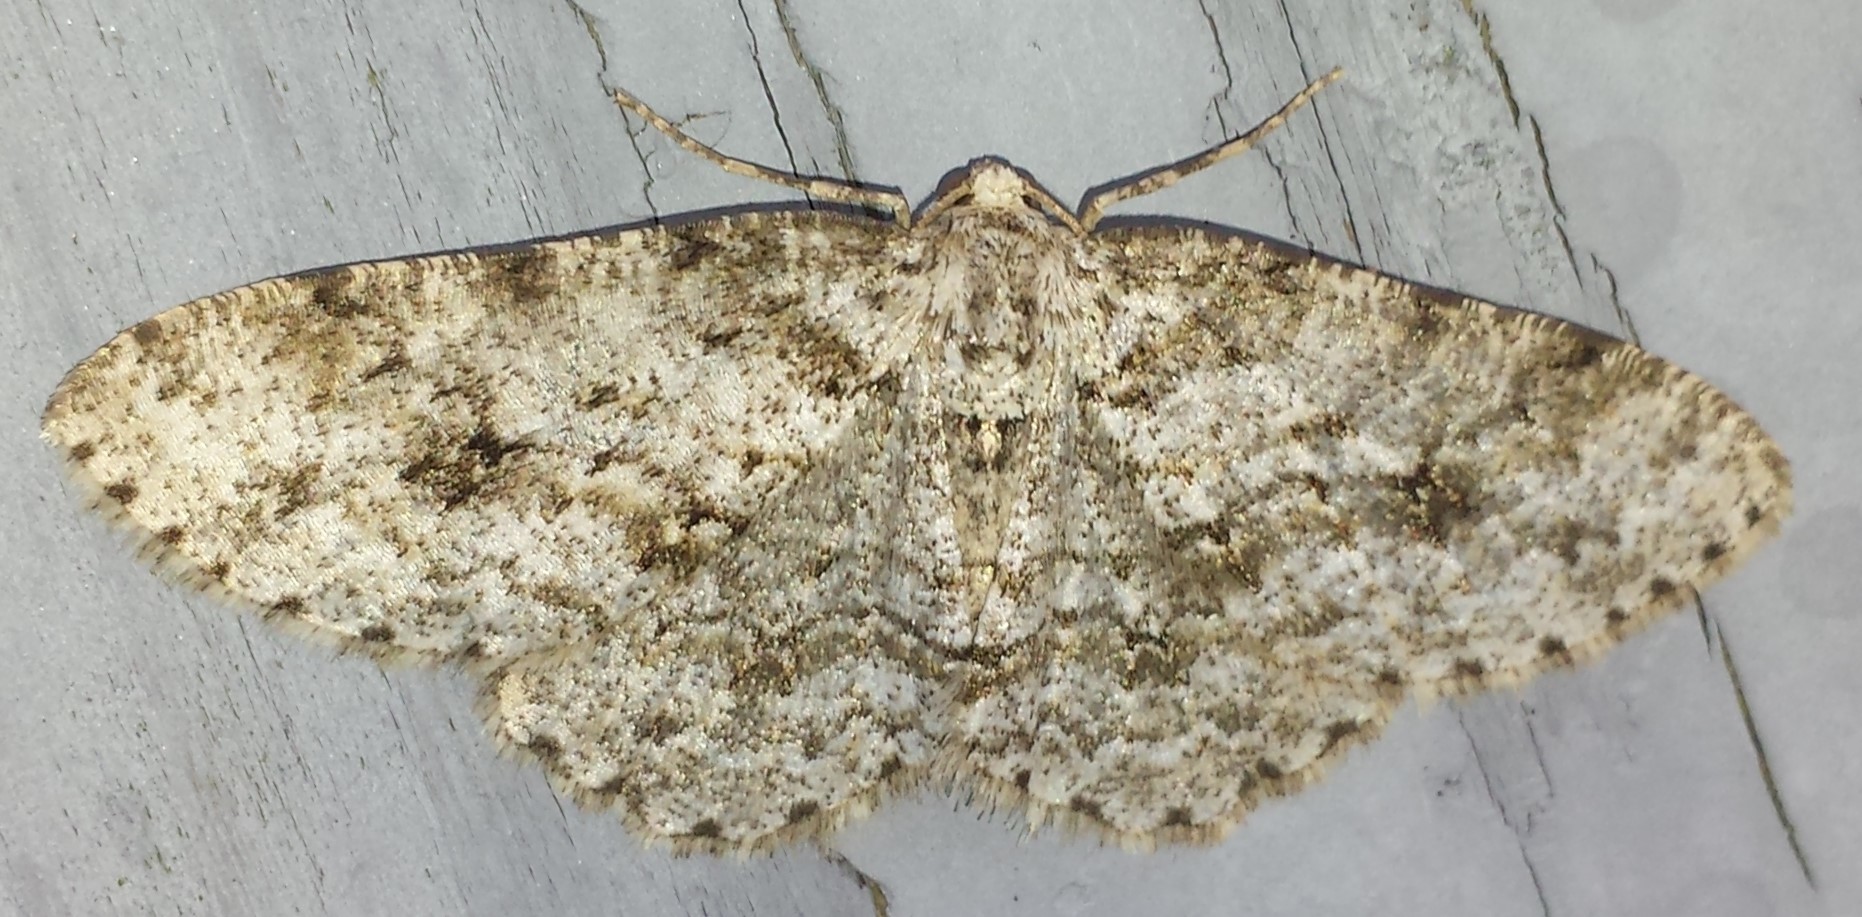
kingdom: Animalia
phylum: Arthropoda
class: Insecta
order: Lepidoptera
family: Geometridae
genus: Ectropis
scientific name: Ectropis crepuscularia
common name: Engrailed
